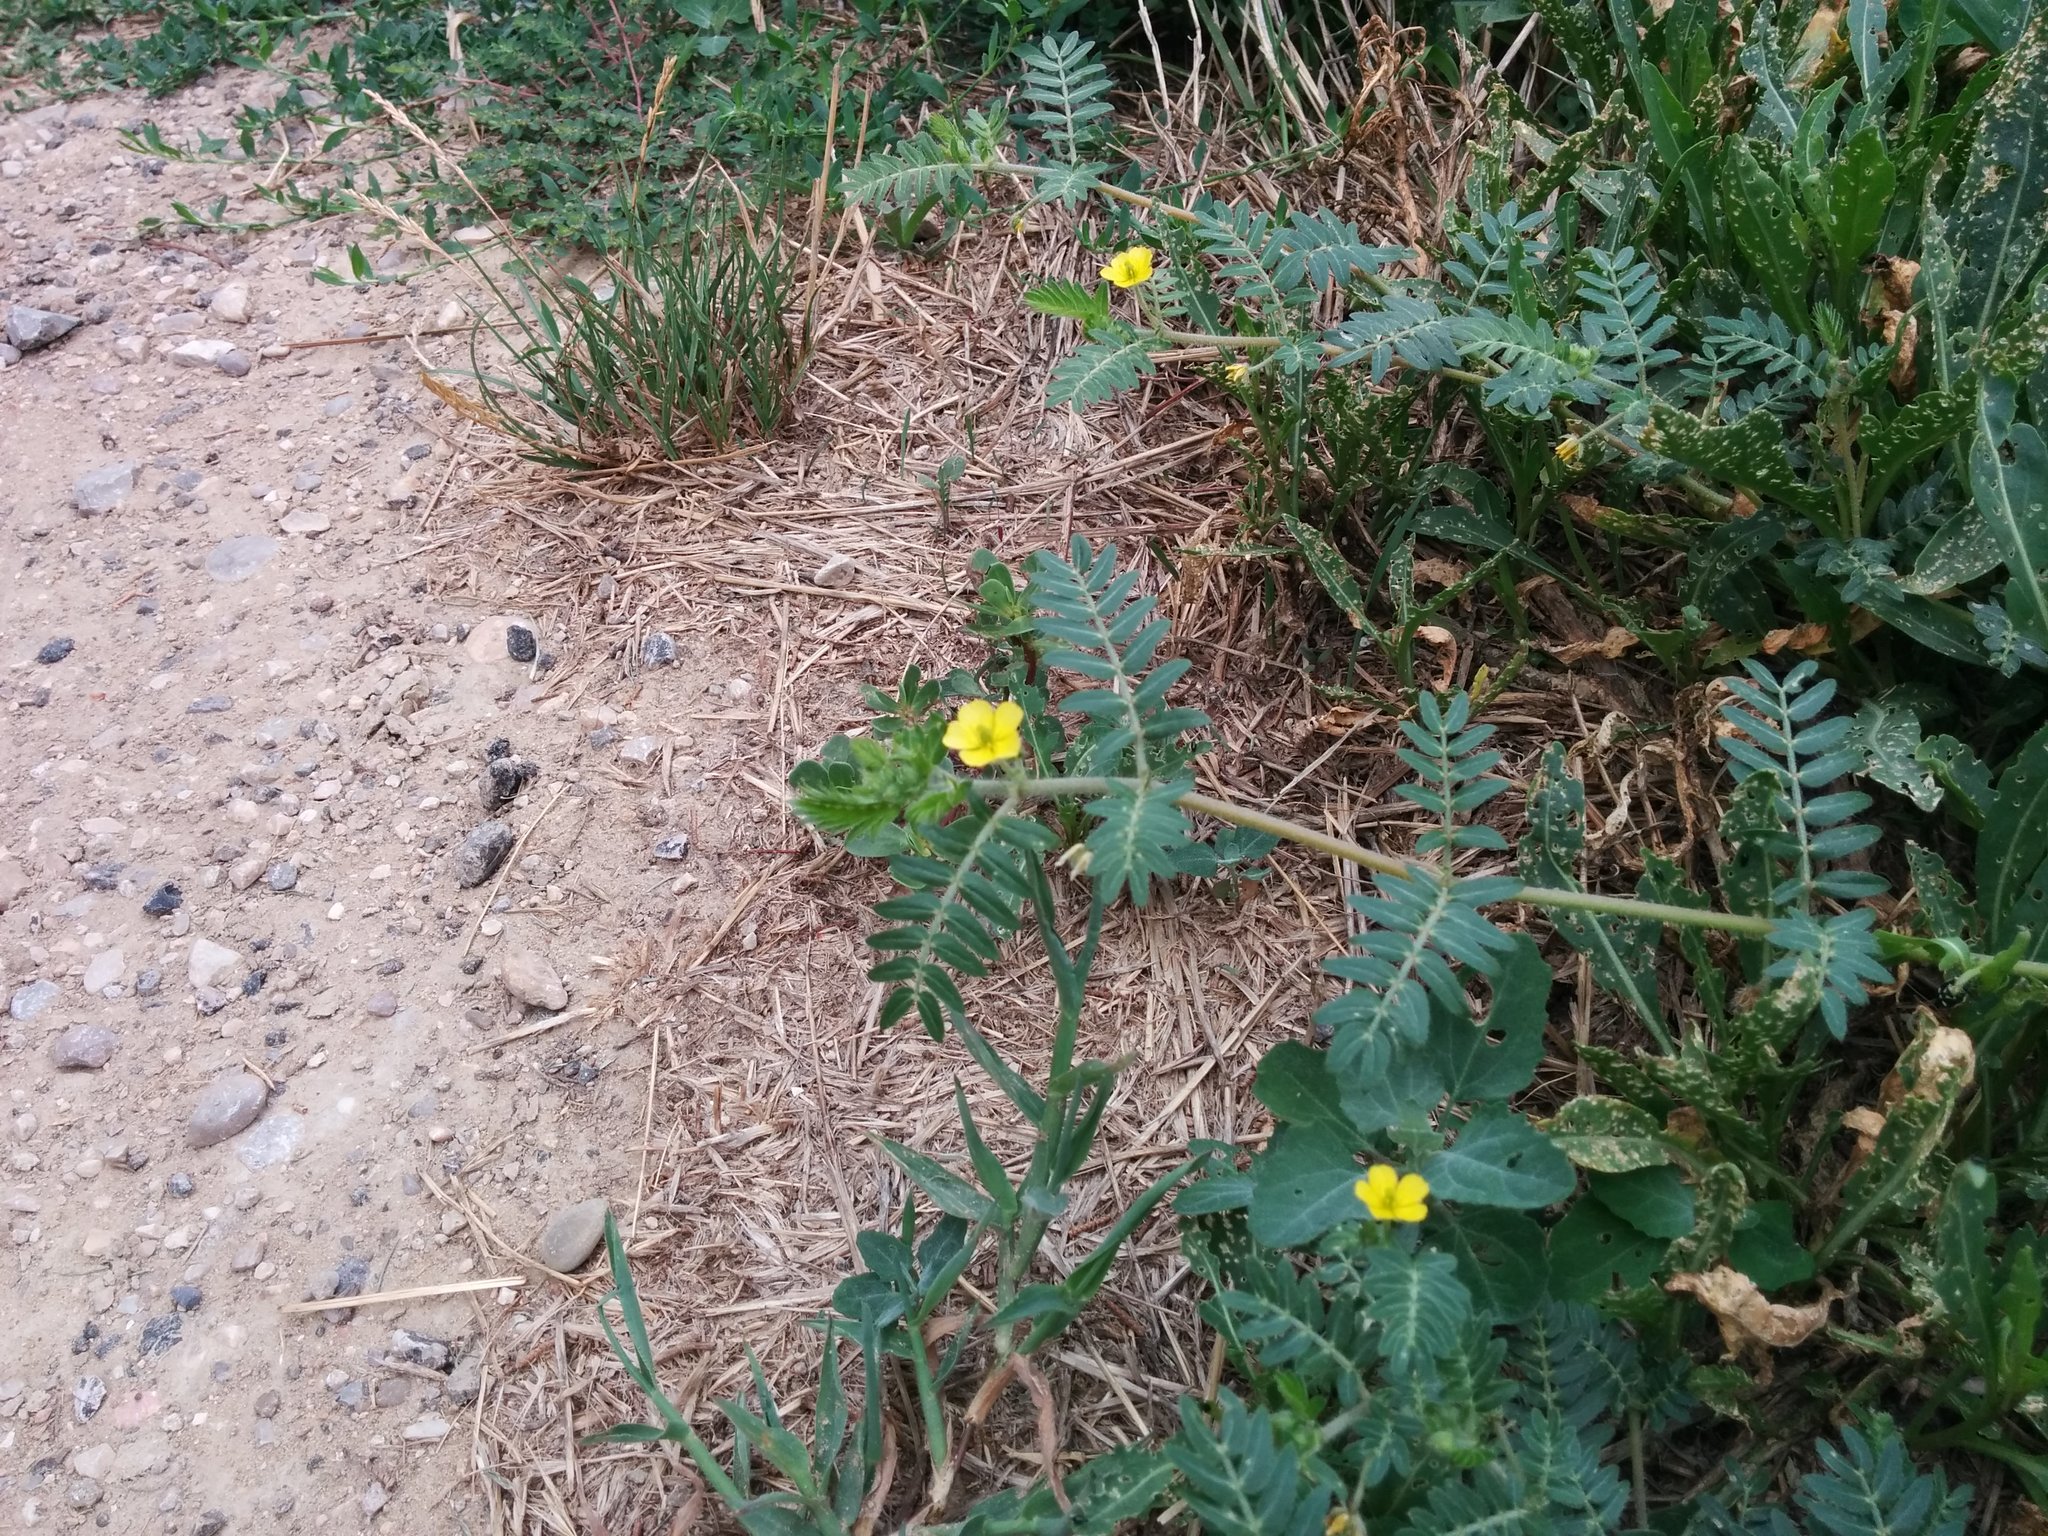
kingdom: Plantae
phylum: Tracheophyta
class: Magnoliopsida
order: Zygophyllales
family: Zygophyllaceae
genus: Tribulus
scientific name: Tribulus terrestris
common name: Puncturevine
